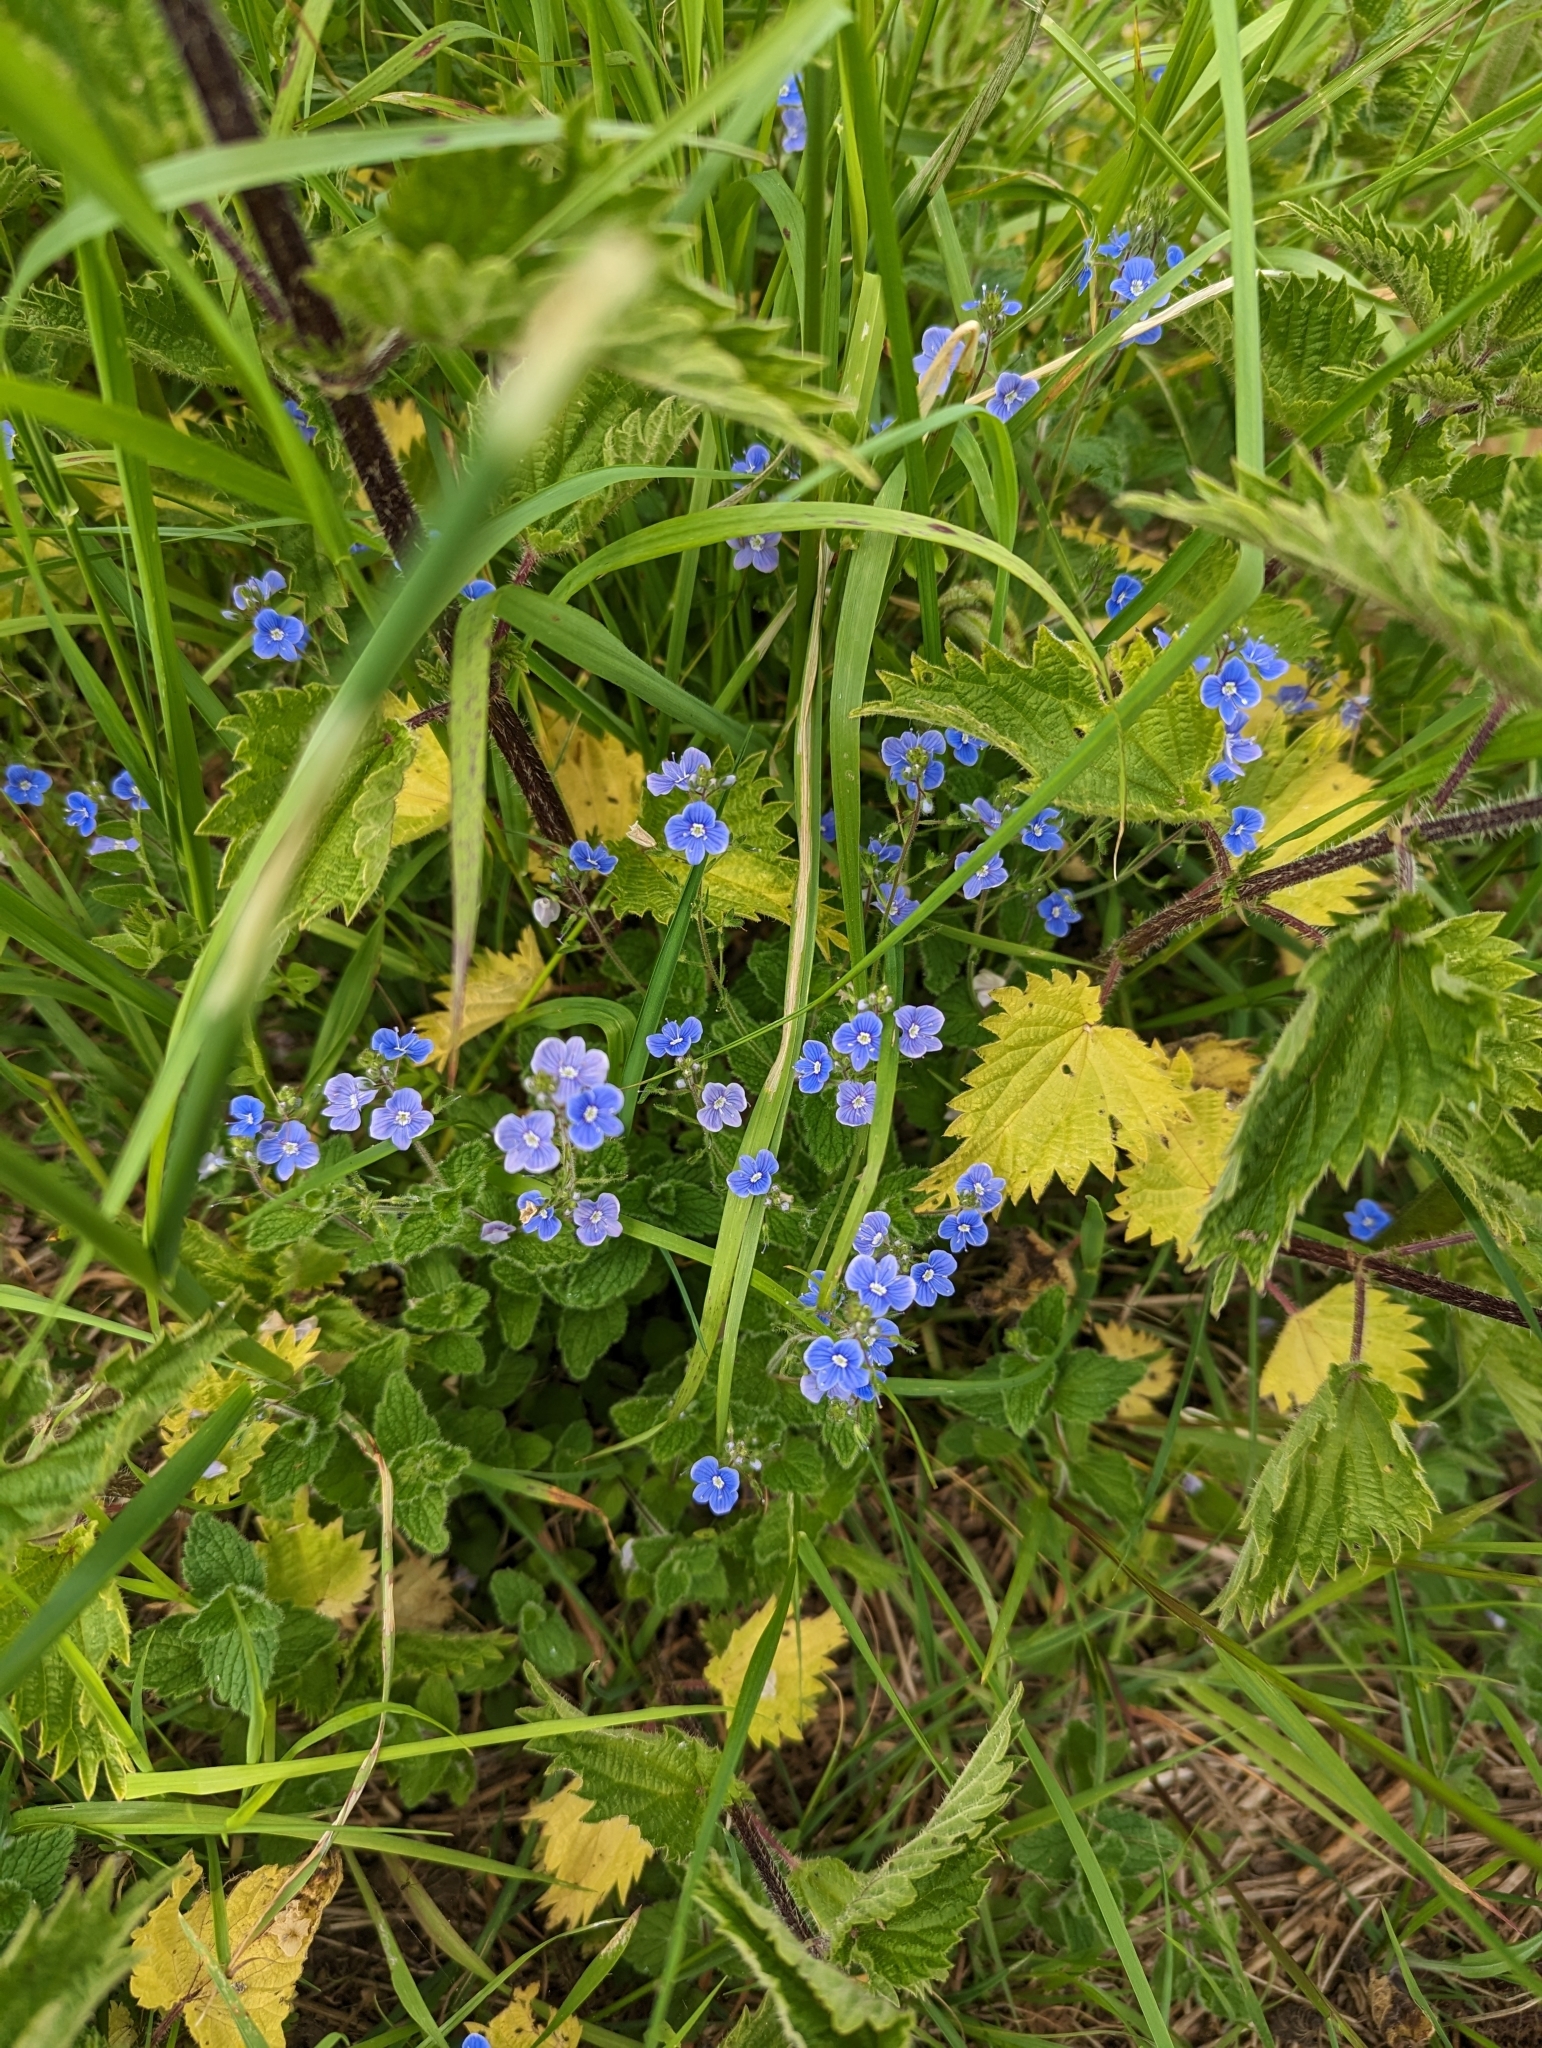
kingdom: Plantae
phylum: Tracheophyta
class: Magnoliopsida
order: Lamiales
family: Plantaginaceae
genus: Veronica
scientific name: Veronica chamaedrys
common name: Germander speedwell
